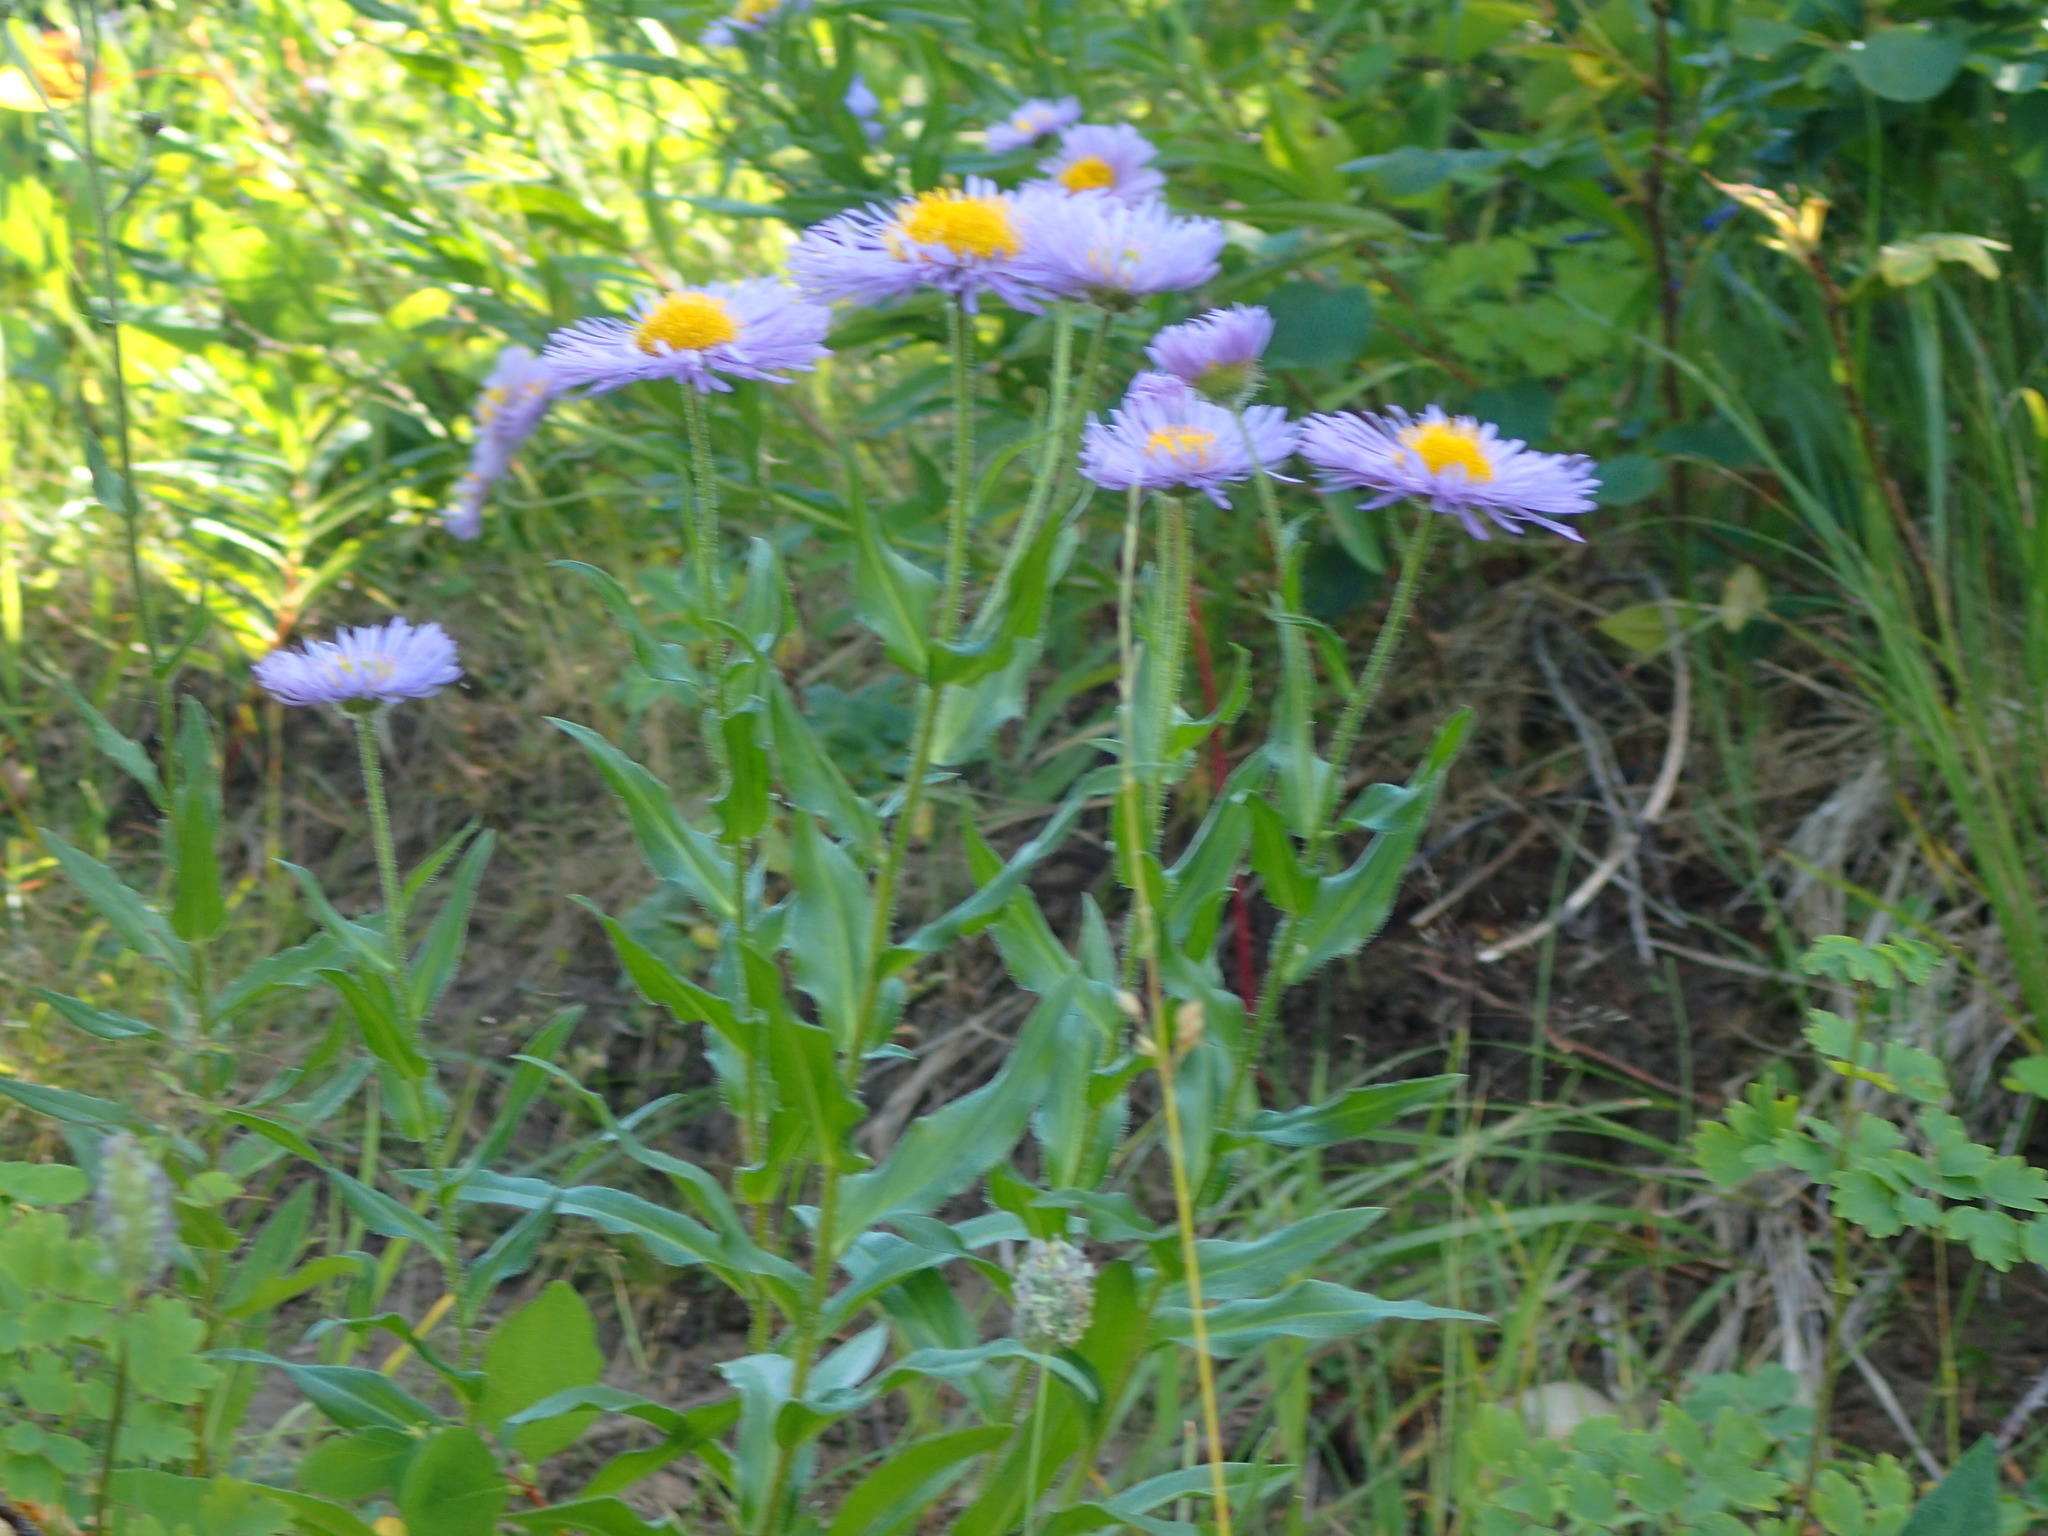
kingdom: Plantae
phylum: Tracheophyta
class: Magnoliopsida
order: Asterales
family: Asteraceae
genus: Erigeron
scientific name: Erigeron speciosus
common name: Aspen fleabane
